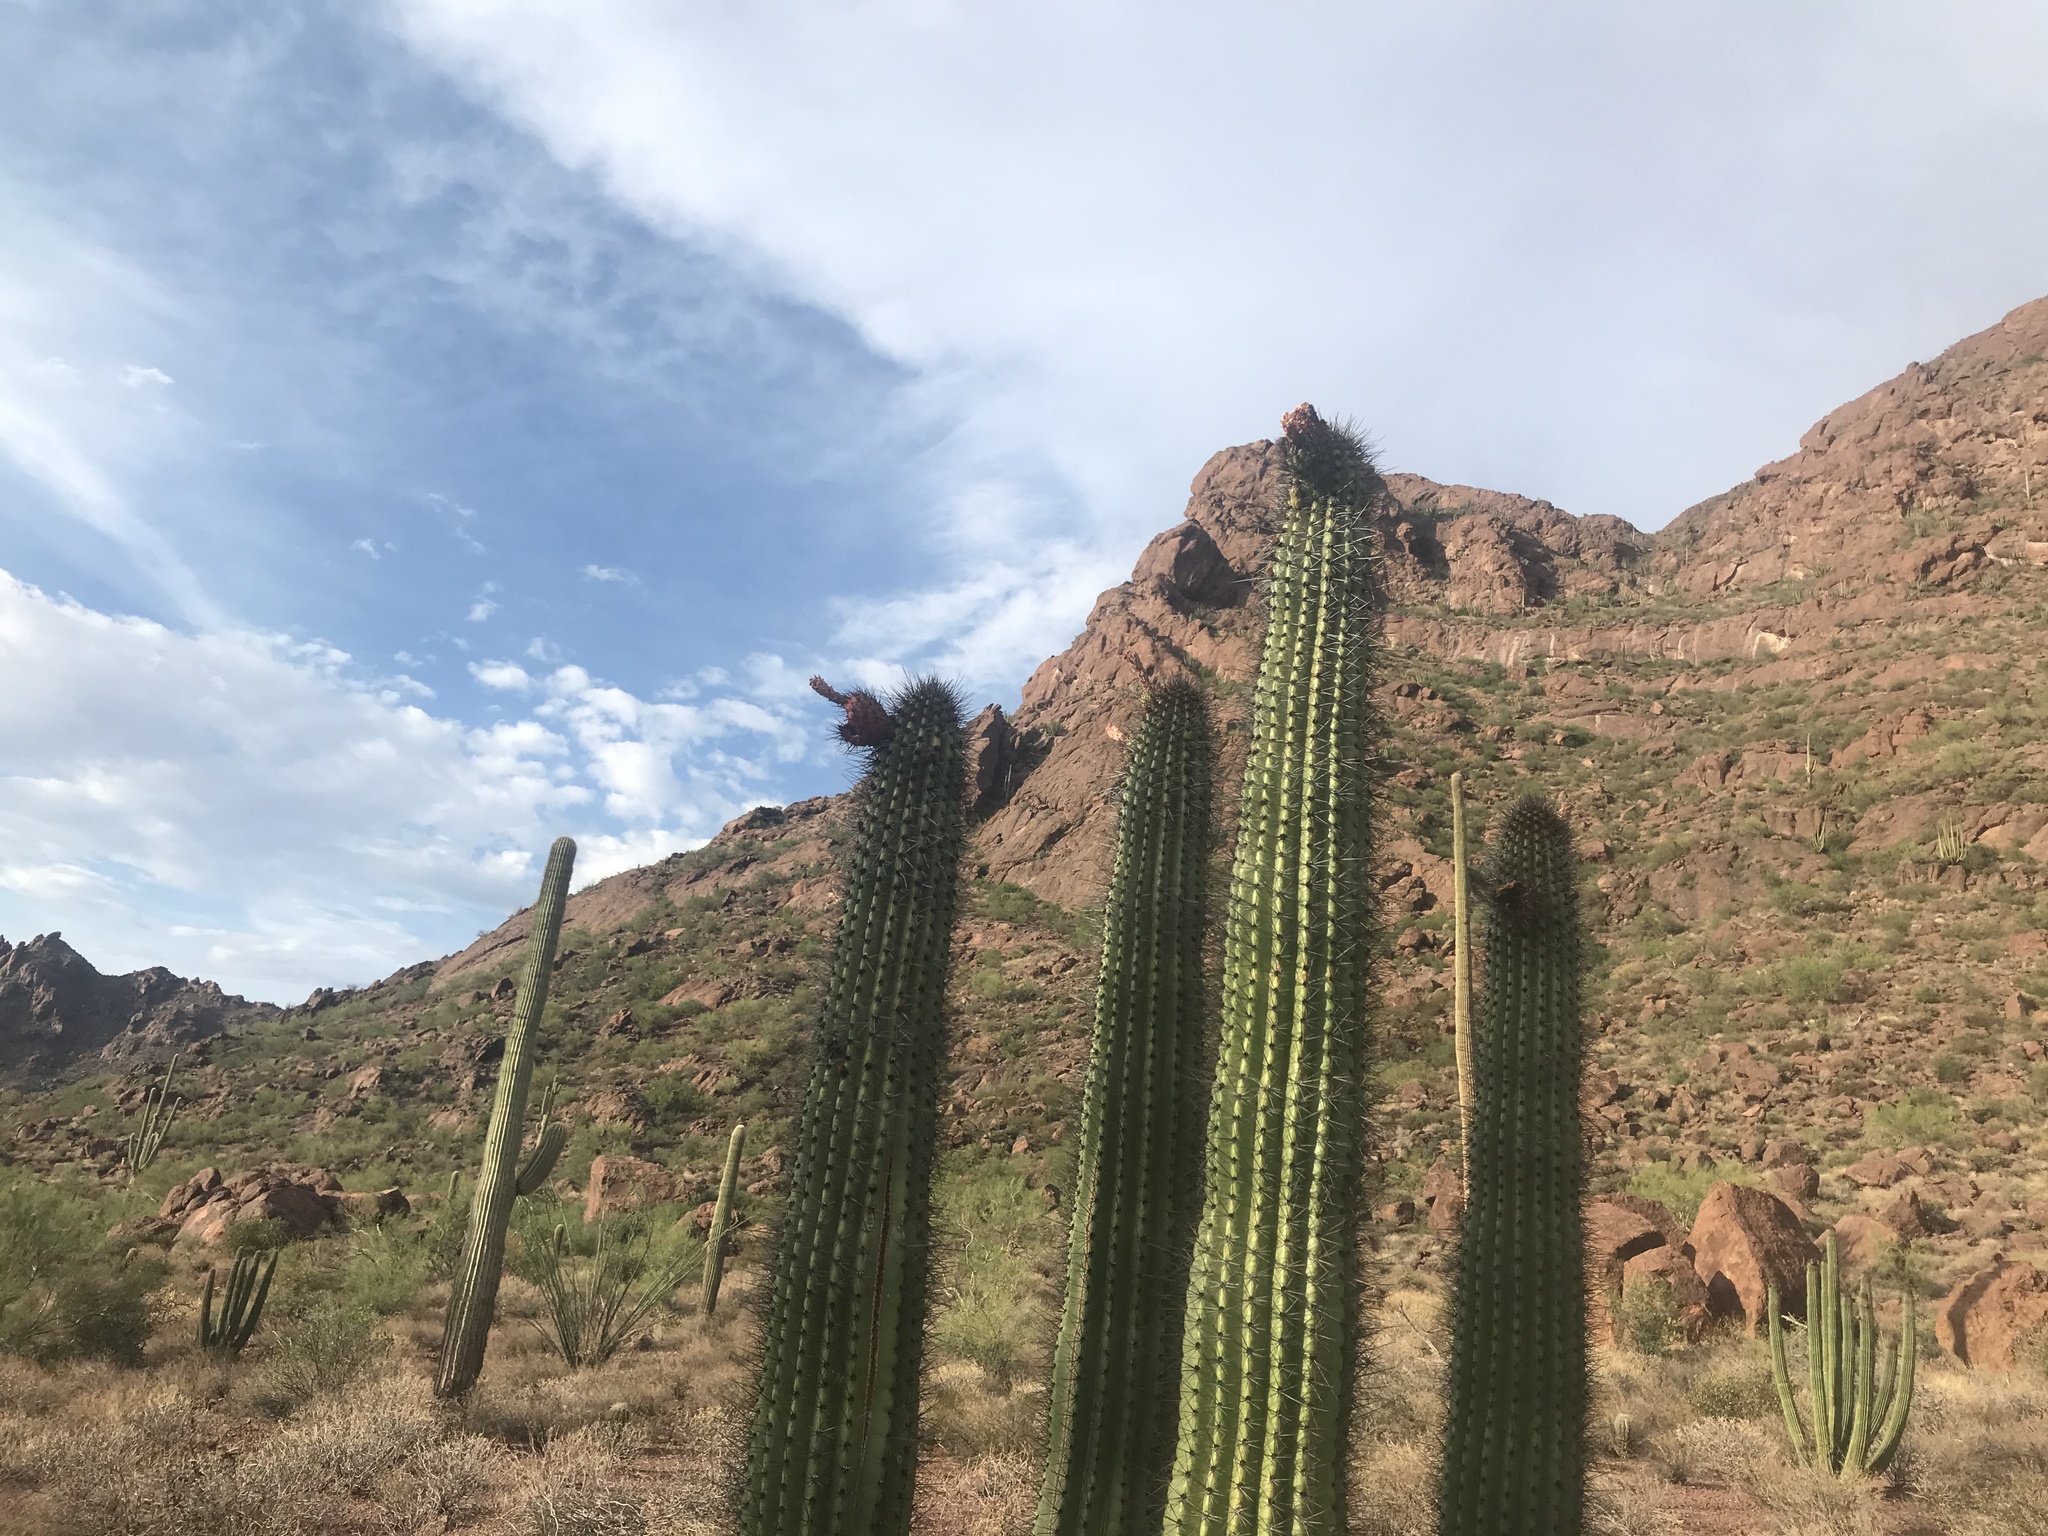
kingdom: Plantae
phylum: Tracheophyta
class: Magnoliopsida
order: Caryophyllales
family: Cactaceae
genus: Stenocereus
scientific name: Stenocereus thurberi
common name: Organ pipe cactus
